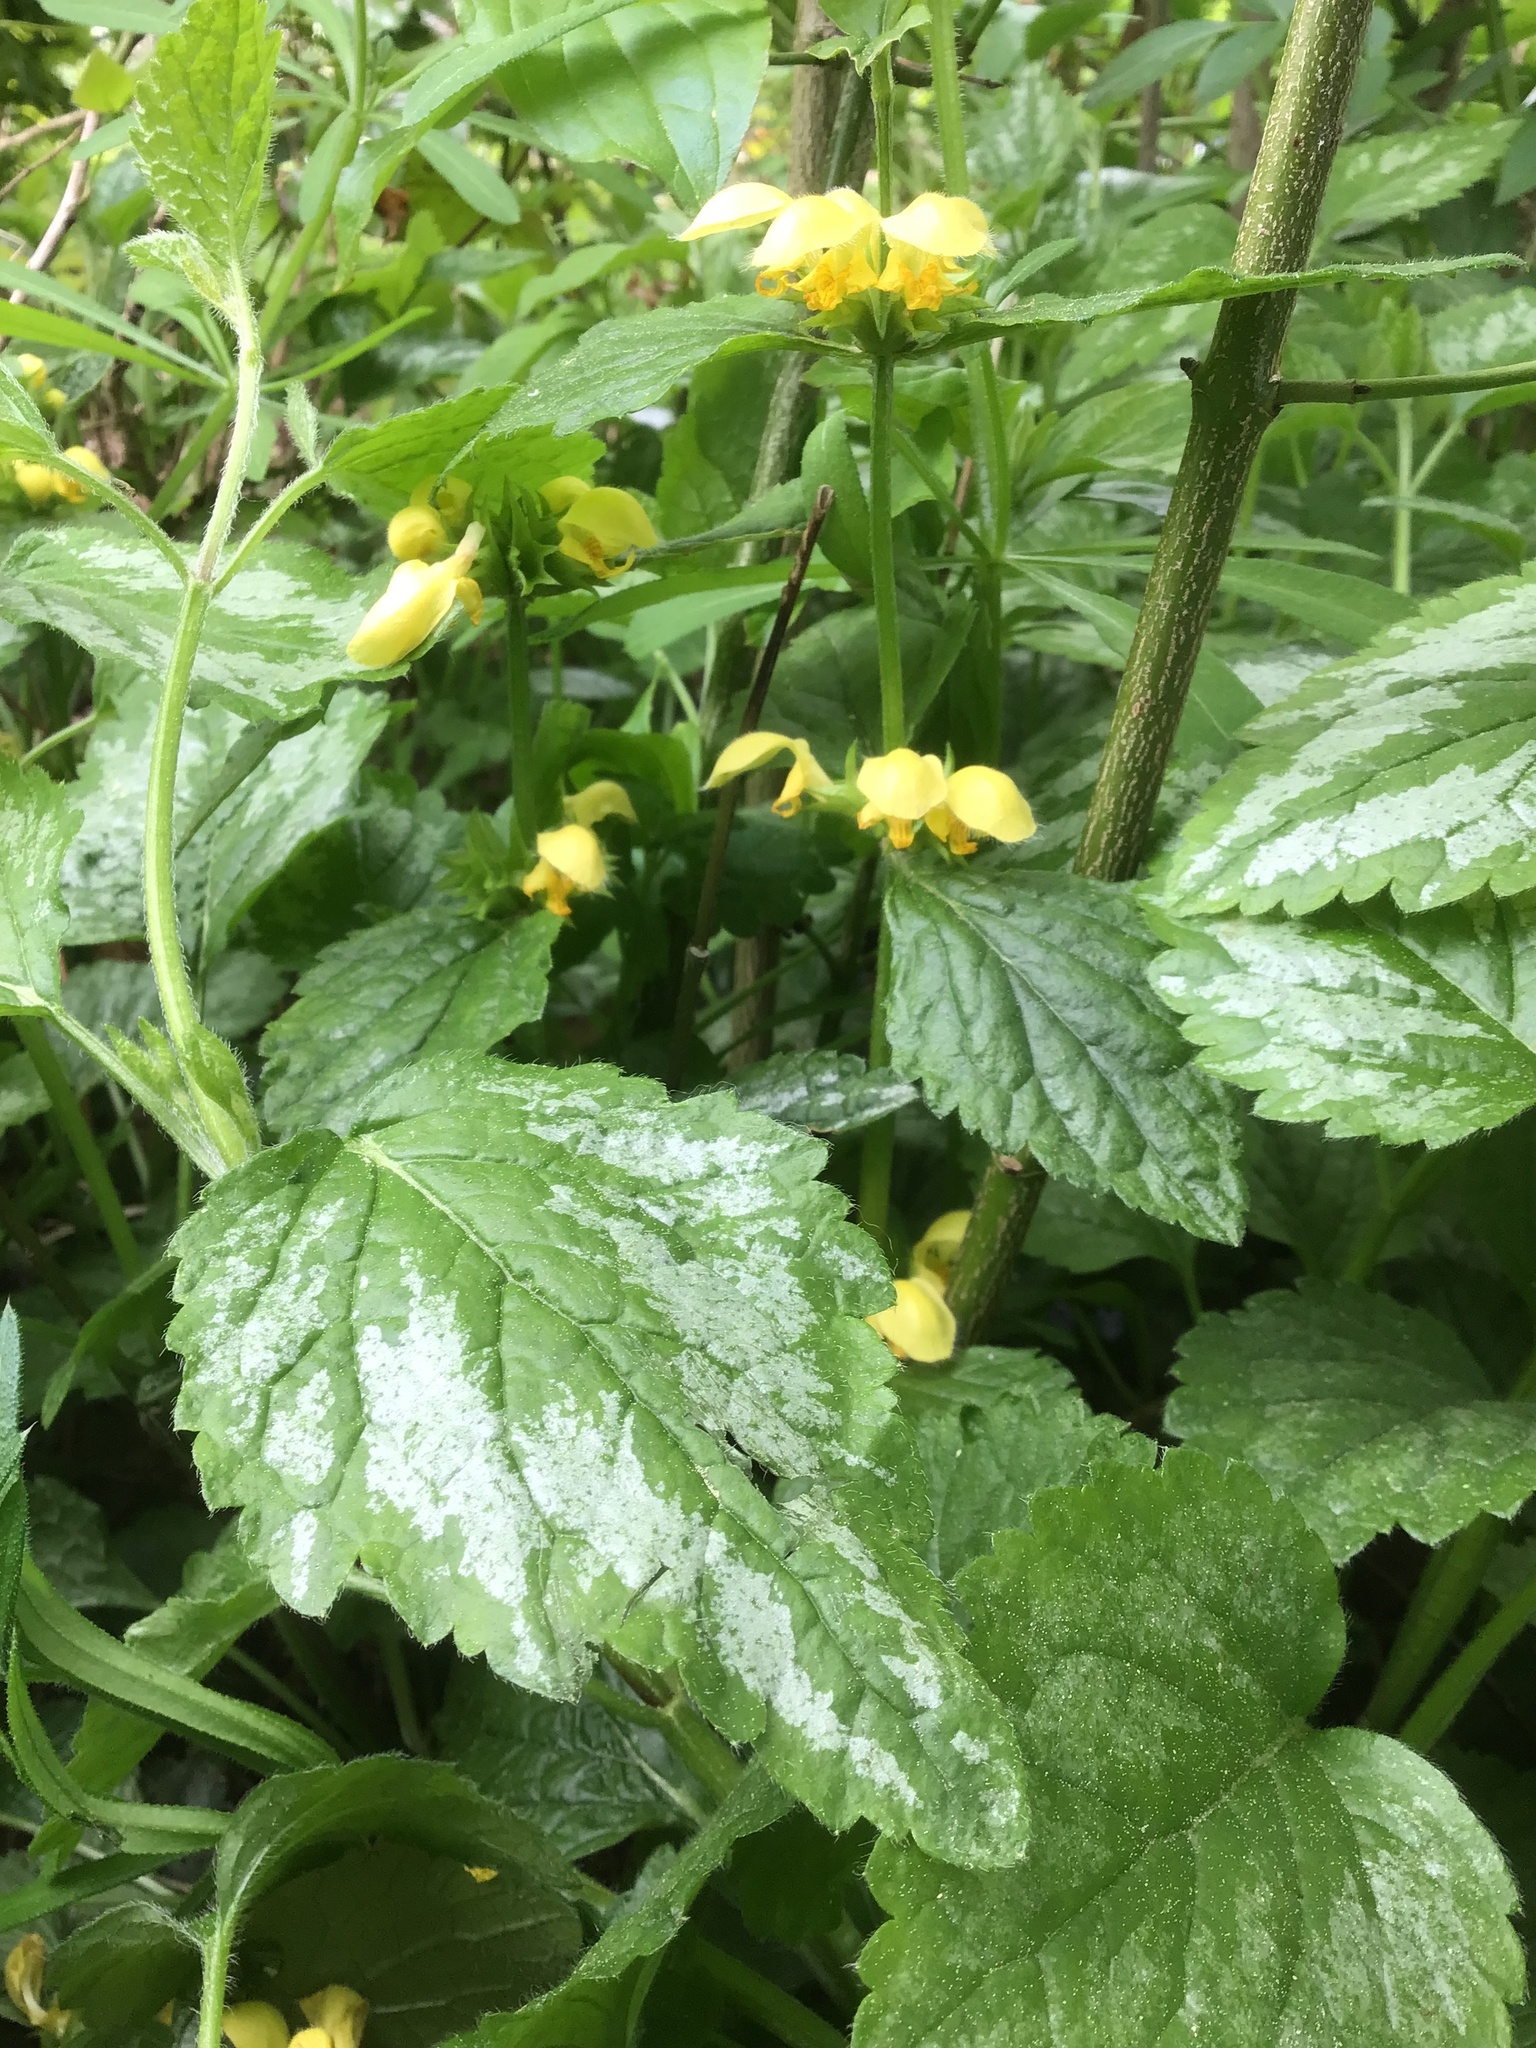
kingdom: Plantae
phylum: Tracheophyta
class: Magnoliopsida
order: Lamiales
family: Lamiaceae
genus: Lamium
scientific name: Lamium galeobdolon
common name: Yellow archangel
